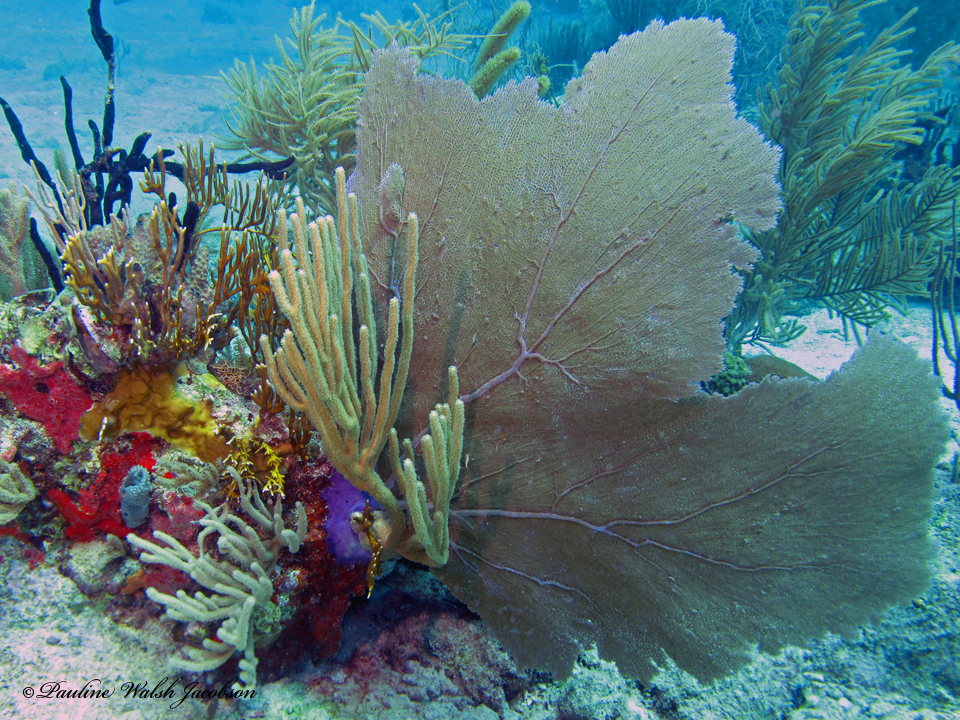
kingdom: Animalia
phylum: Cnidaria
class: Anthozoa
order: Malacalcyonacea
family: Gorgoniidae
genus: Gorgonia
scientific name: Gorgonia ventalina
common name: Common sea fan
